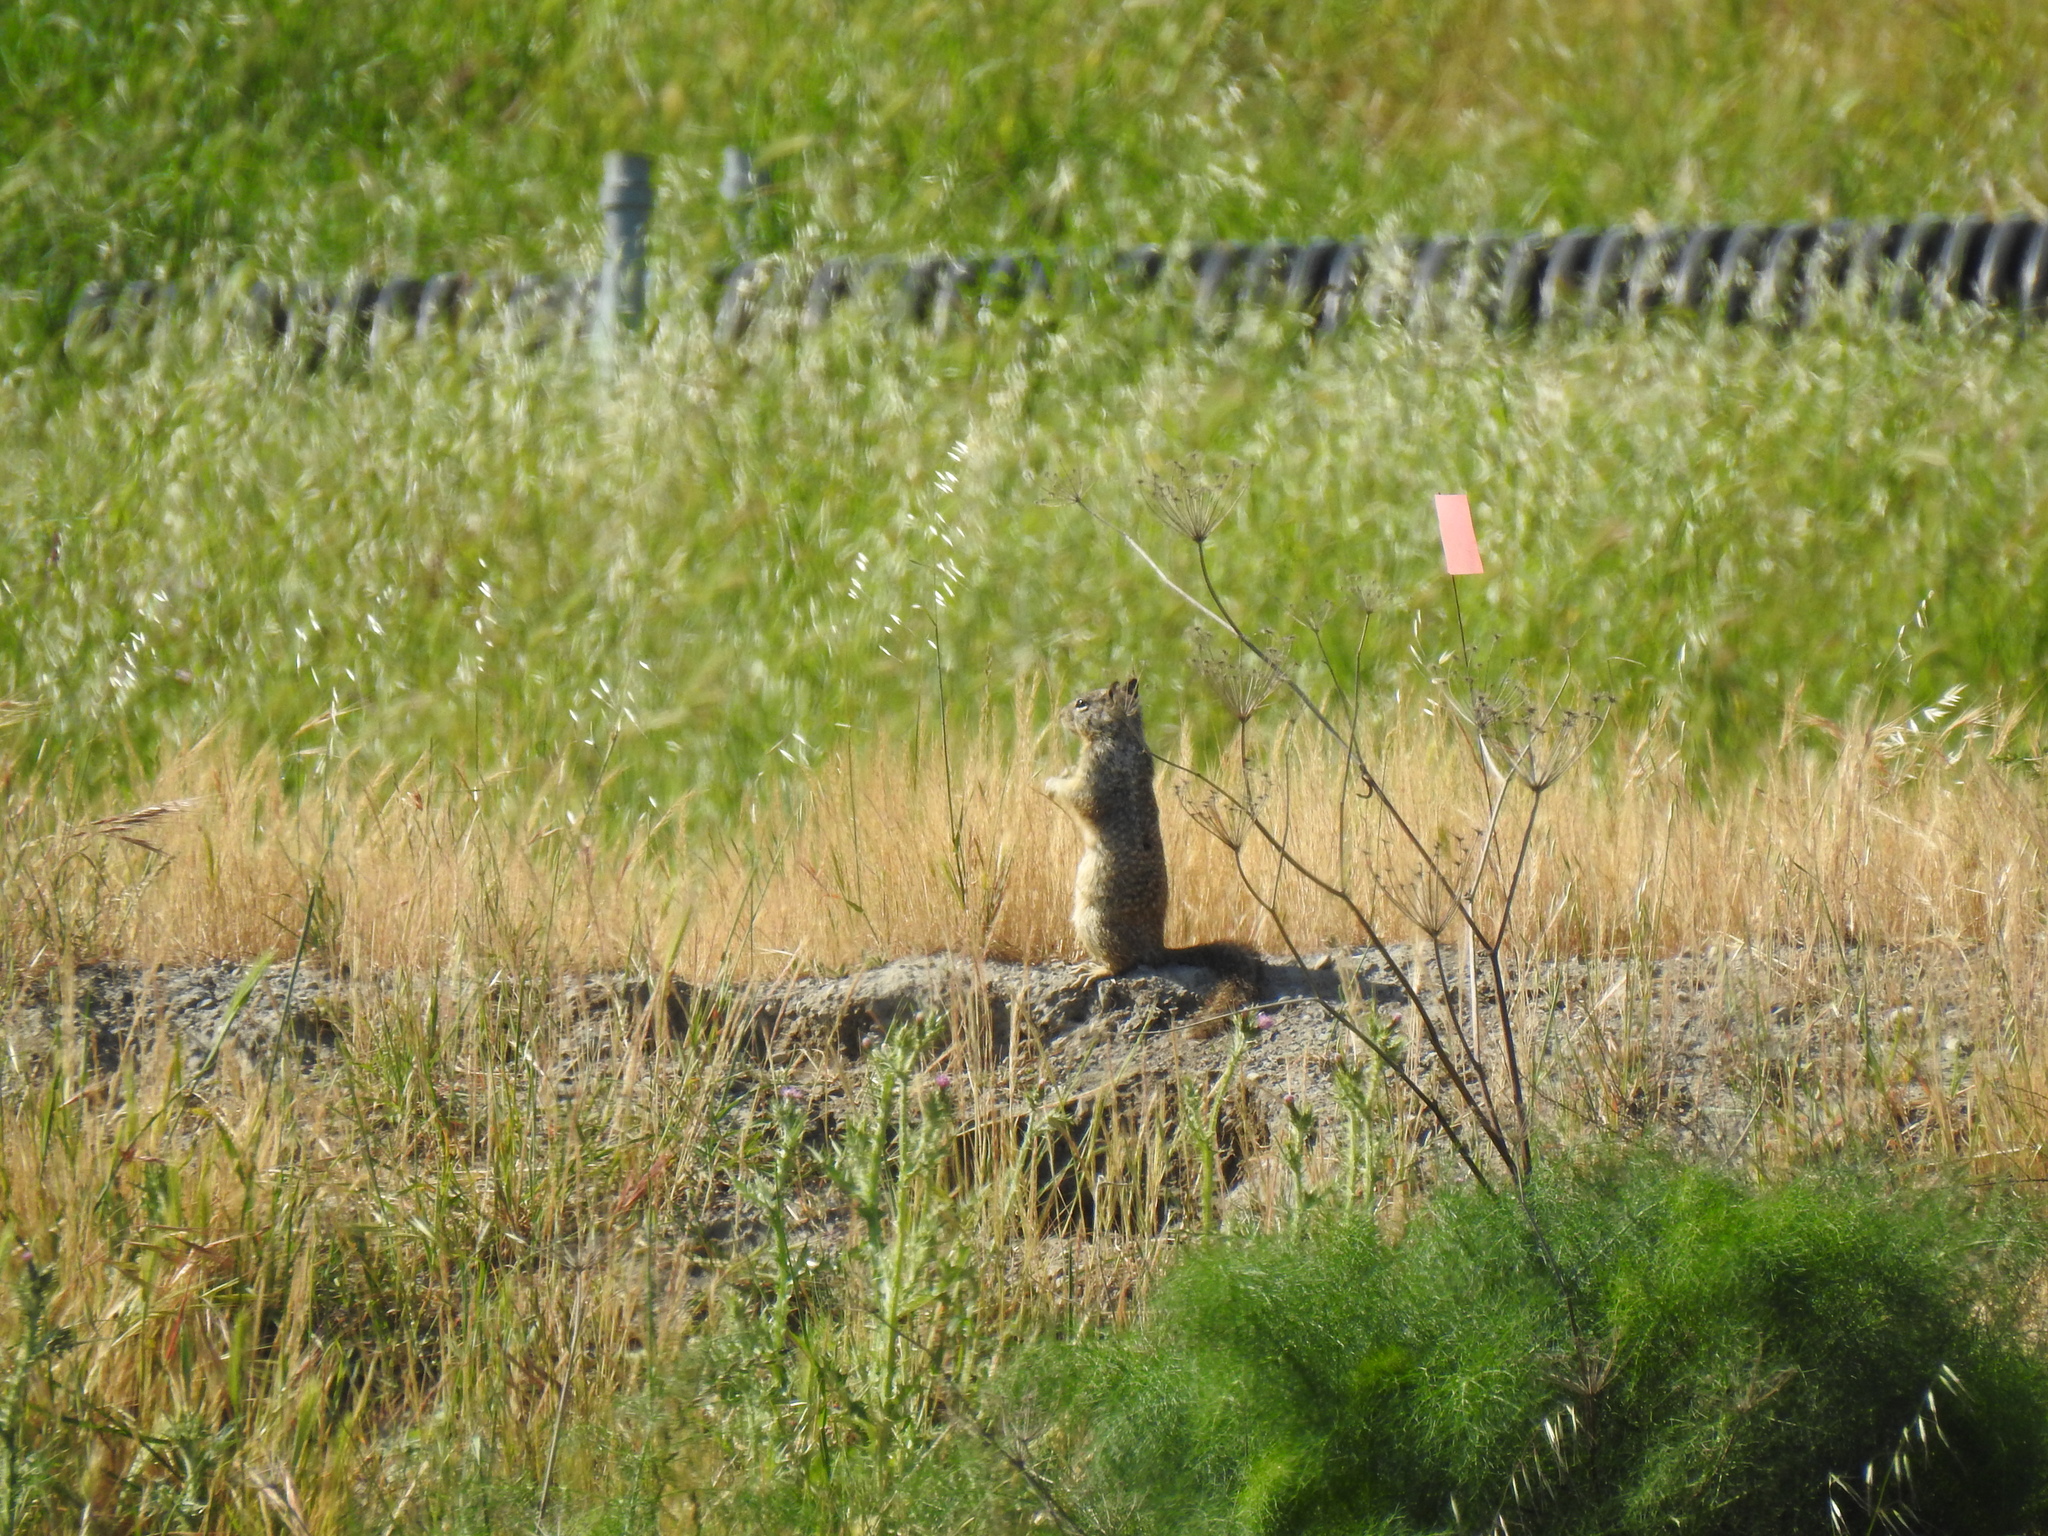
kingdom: Animalia
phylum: Chordata
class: Mammalia
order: Rodentia
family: Sciuridae
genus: Otospermophilus
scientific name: Otospermophilus beecheyi
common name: California ground squirrel
